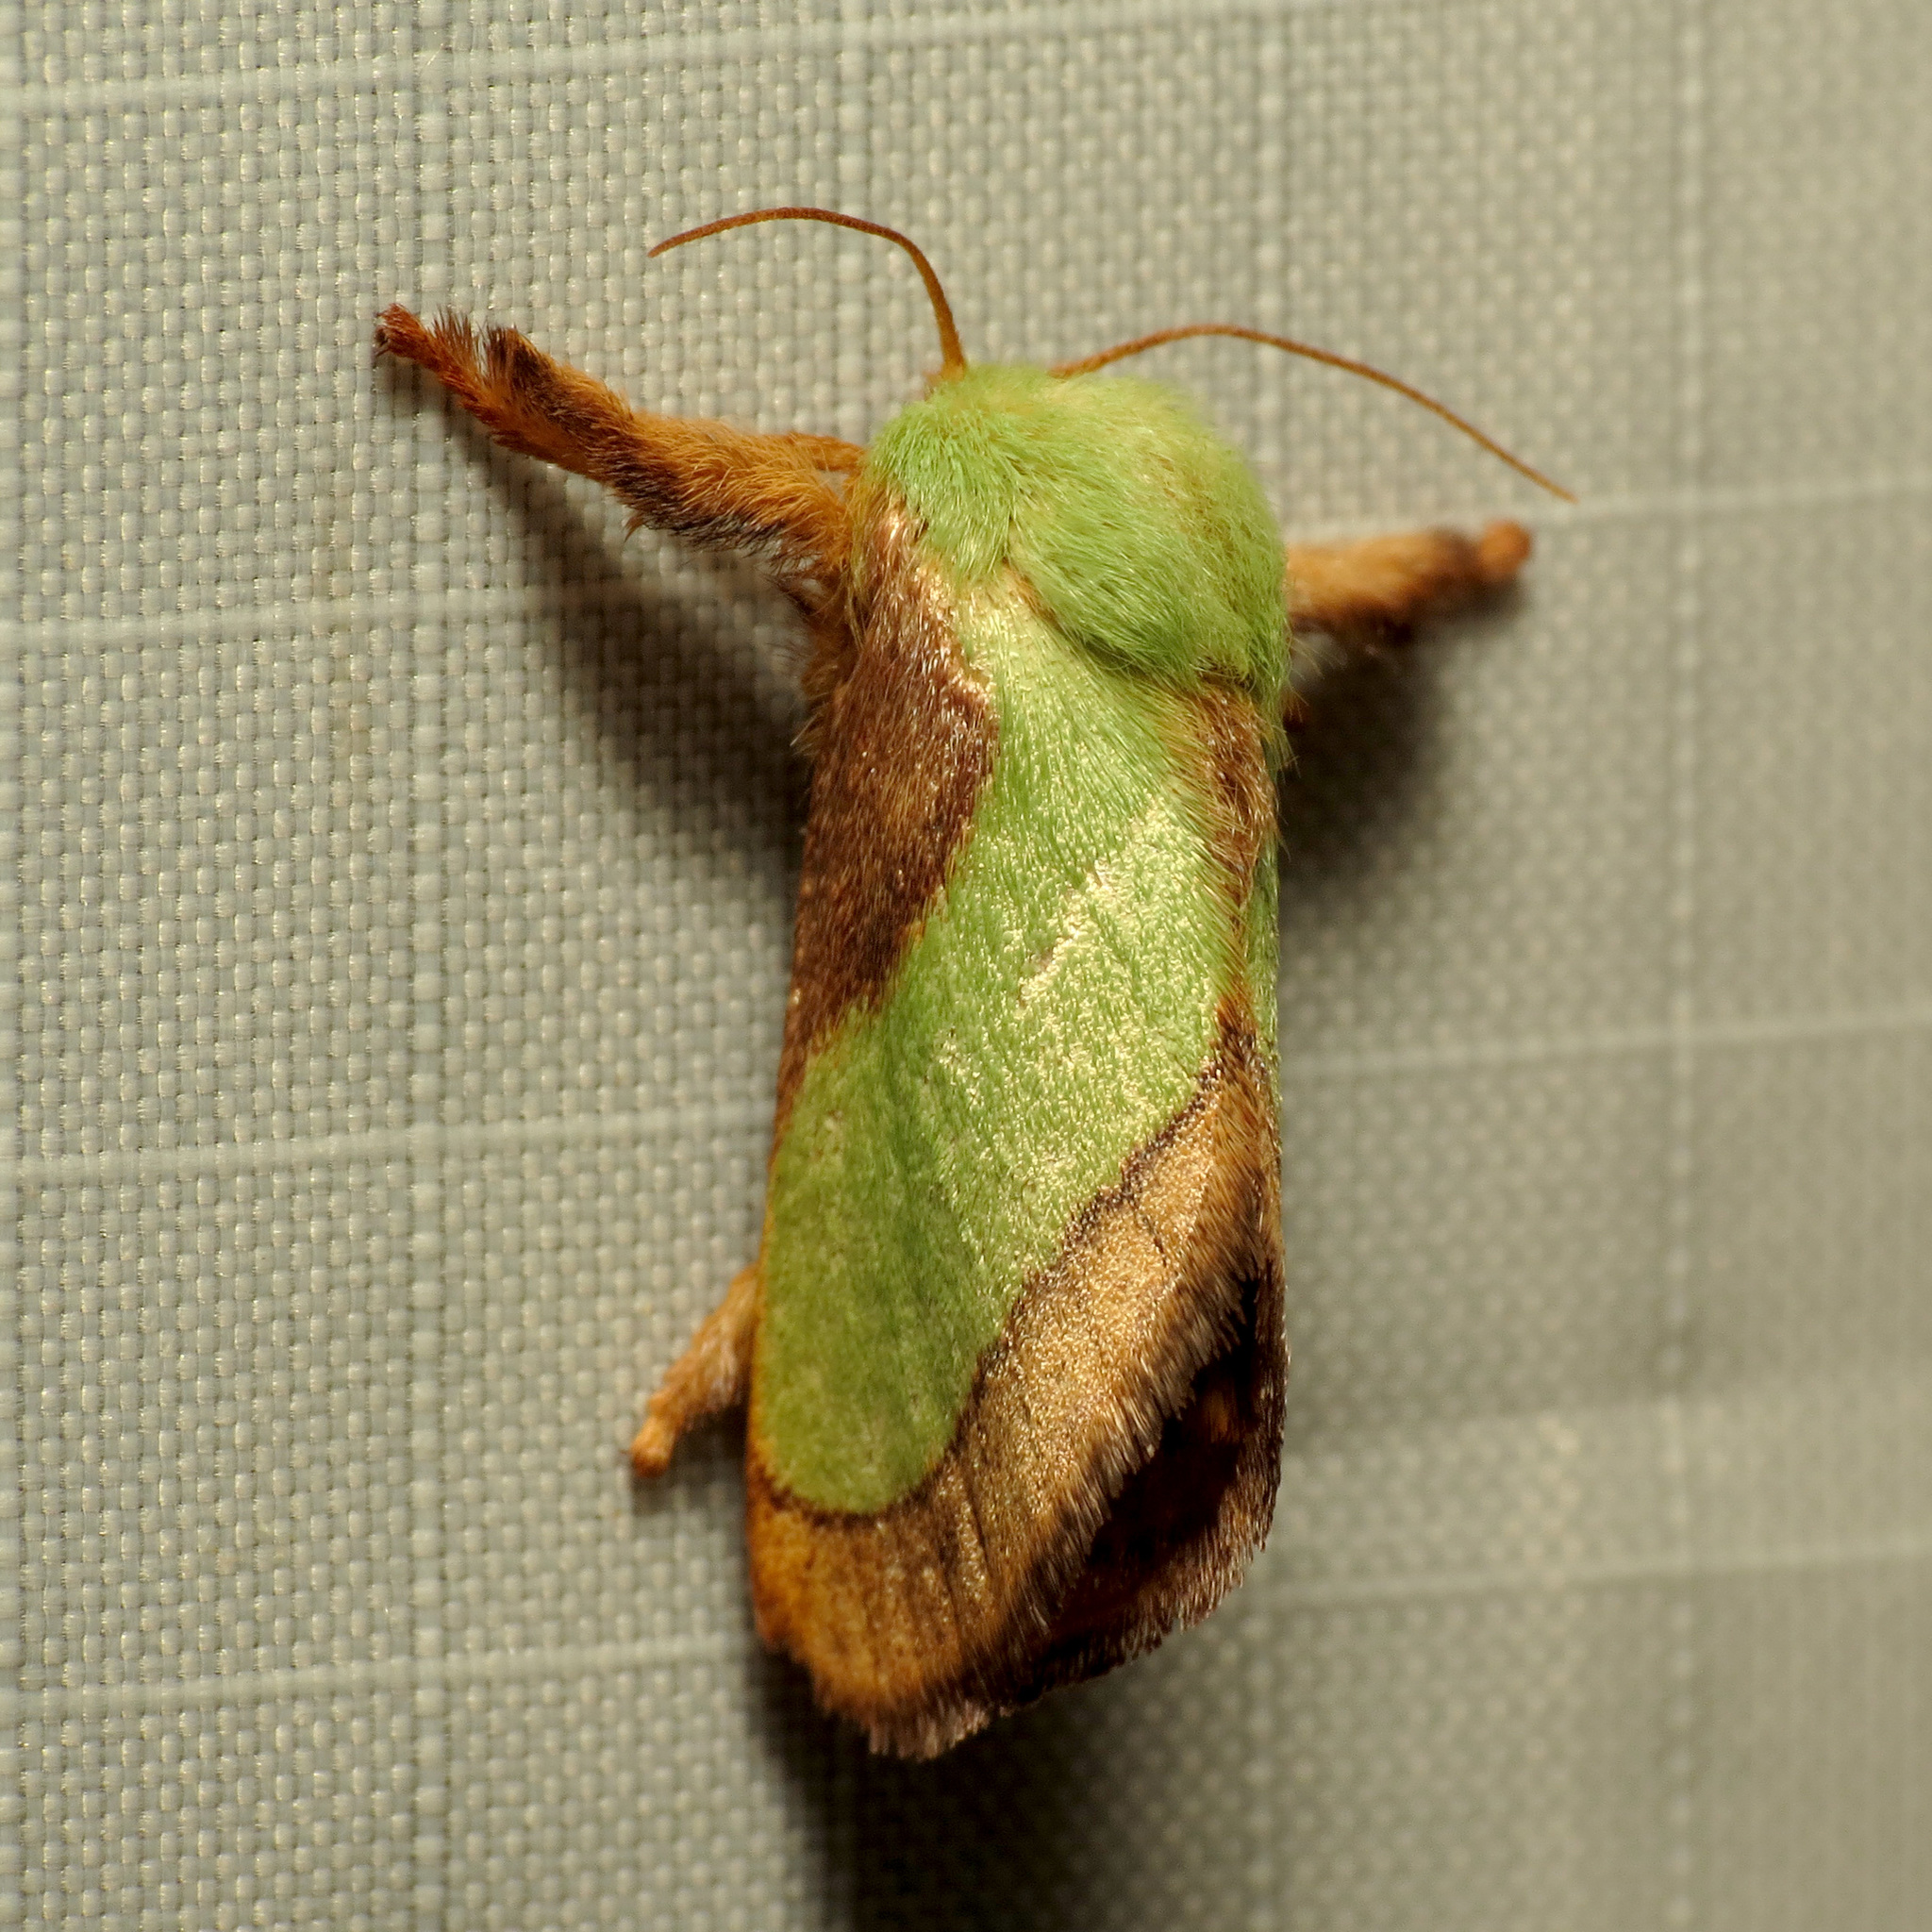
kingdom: Animalia
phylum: Arthropoda
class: Insecta
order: Lepidoptera
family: Limacodidae
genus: Parasa
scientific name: Parasa chloris
